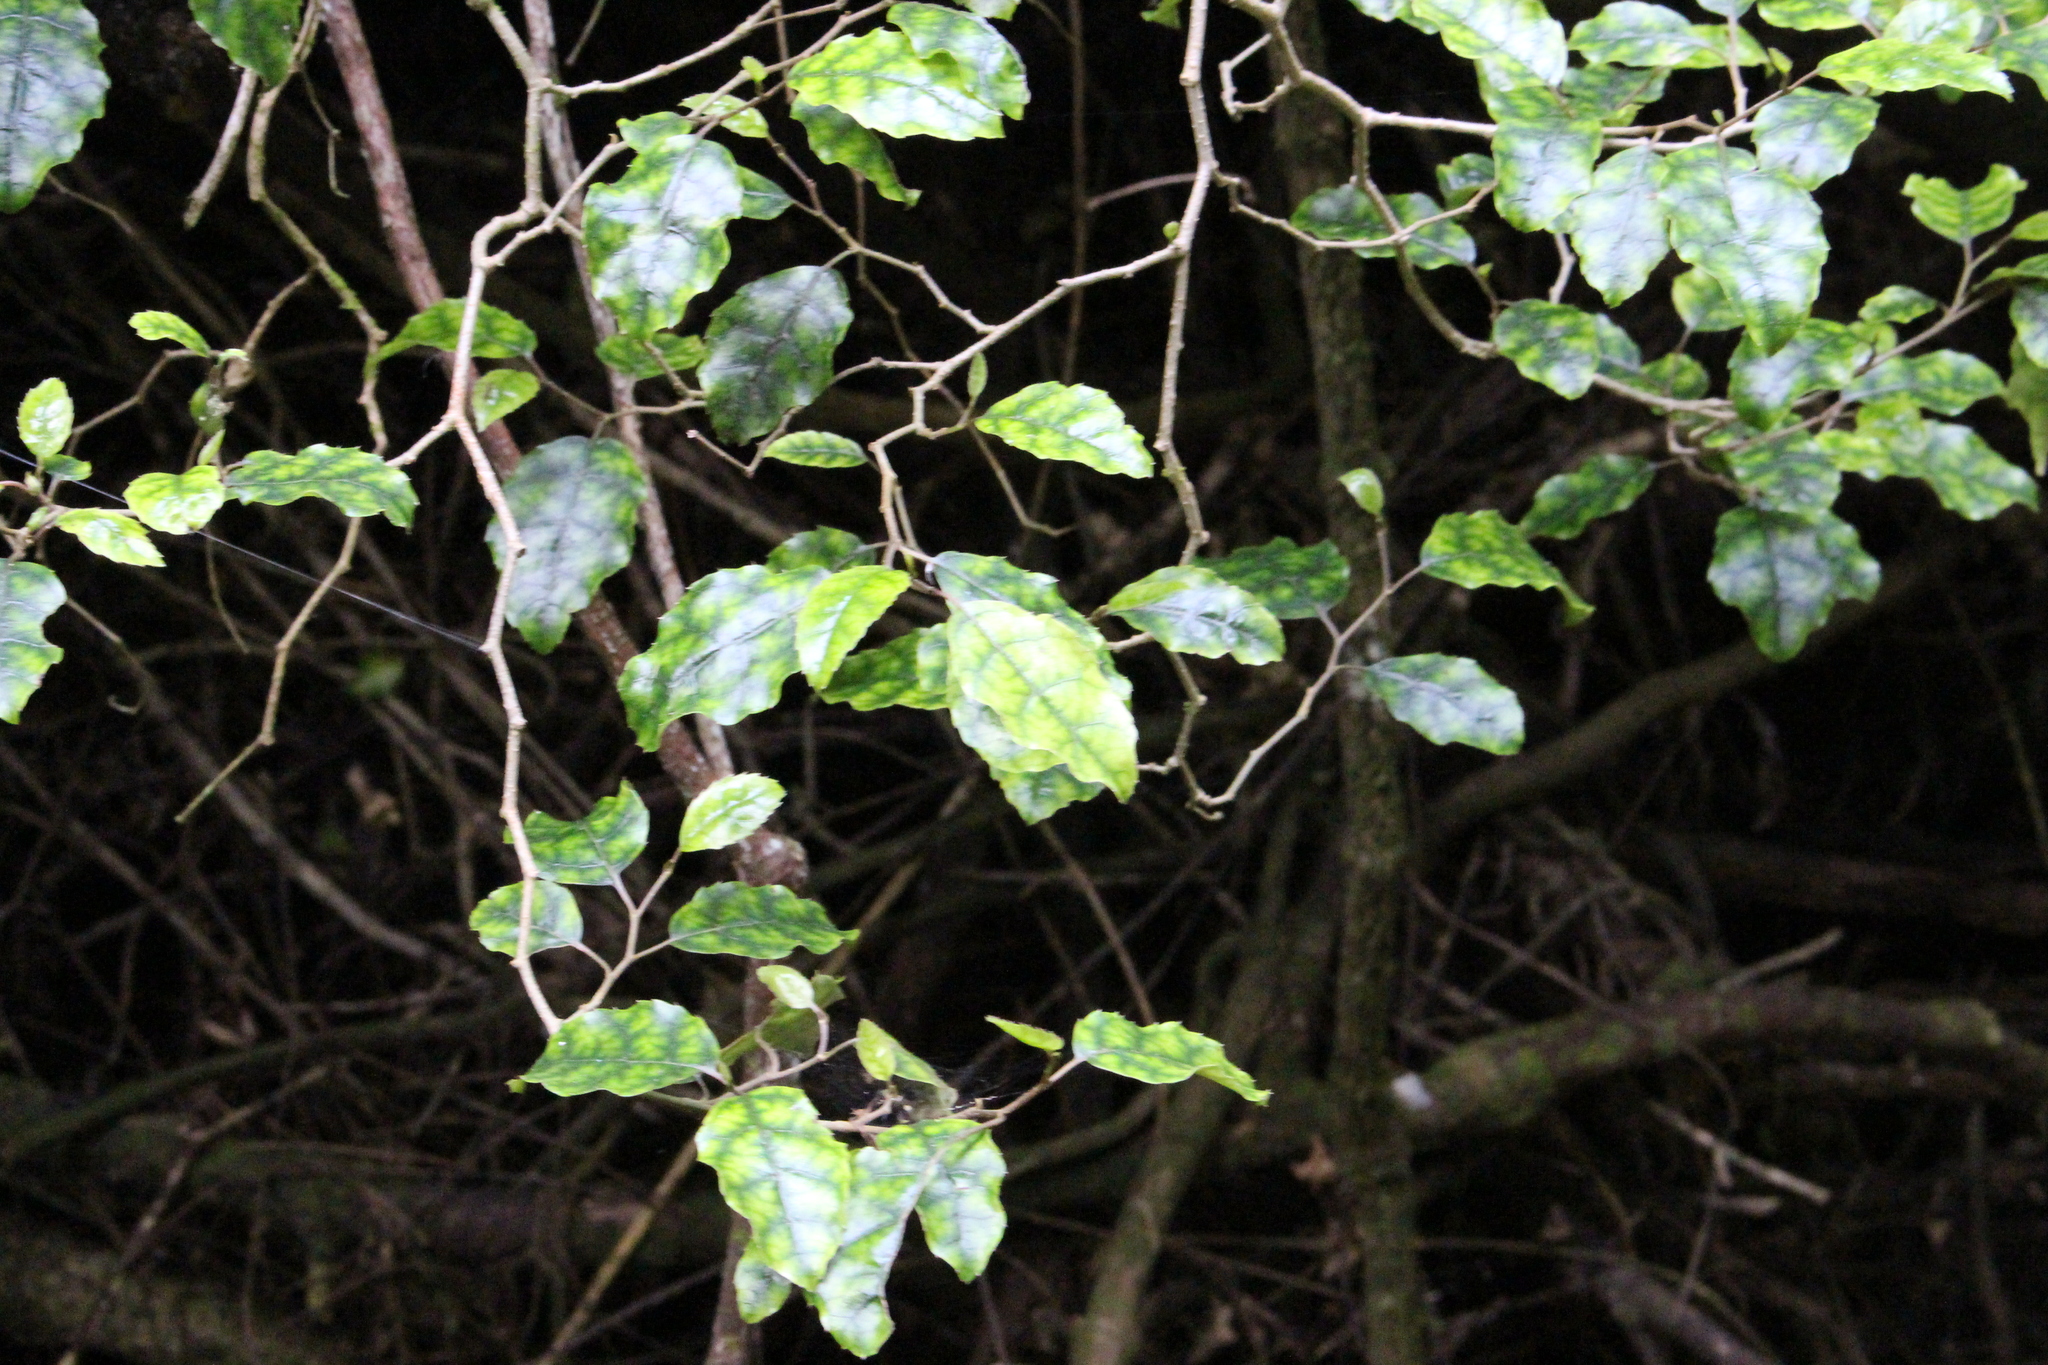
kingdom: Plantae
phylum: Tracheophyta
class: Magnoliopsida
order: Asterales
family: Rousseaceae
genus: Carpodetus
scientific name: Carpodetus serratus
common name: White mapau
